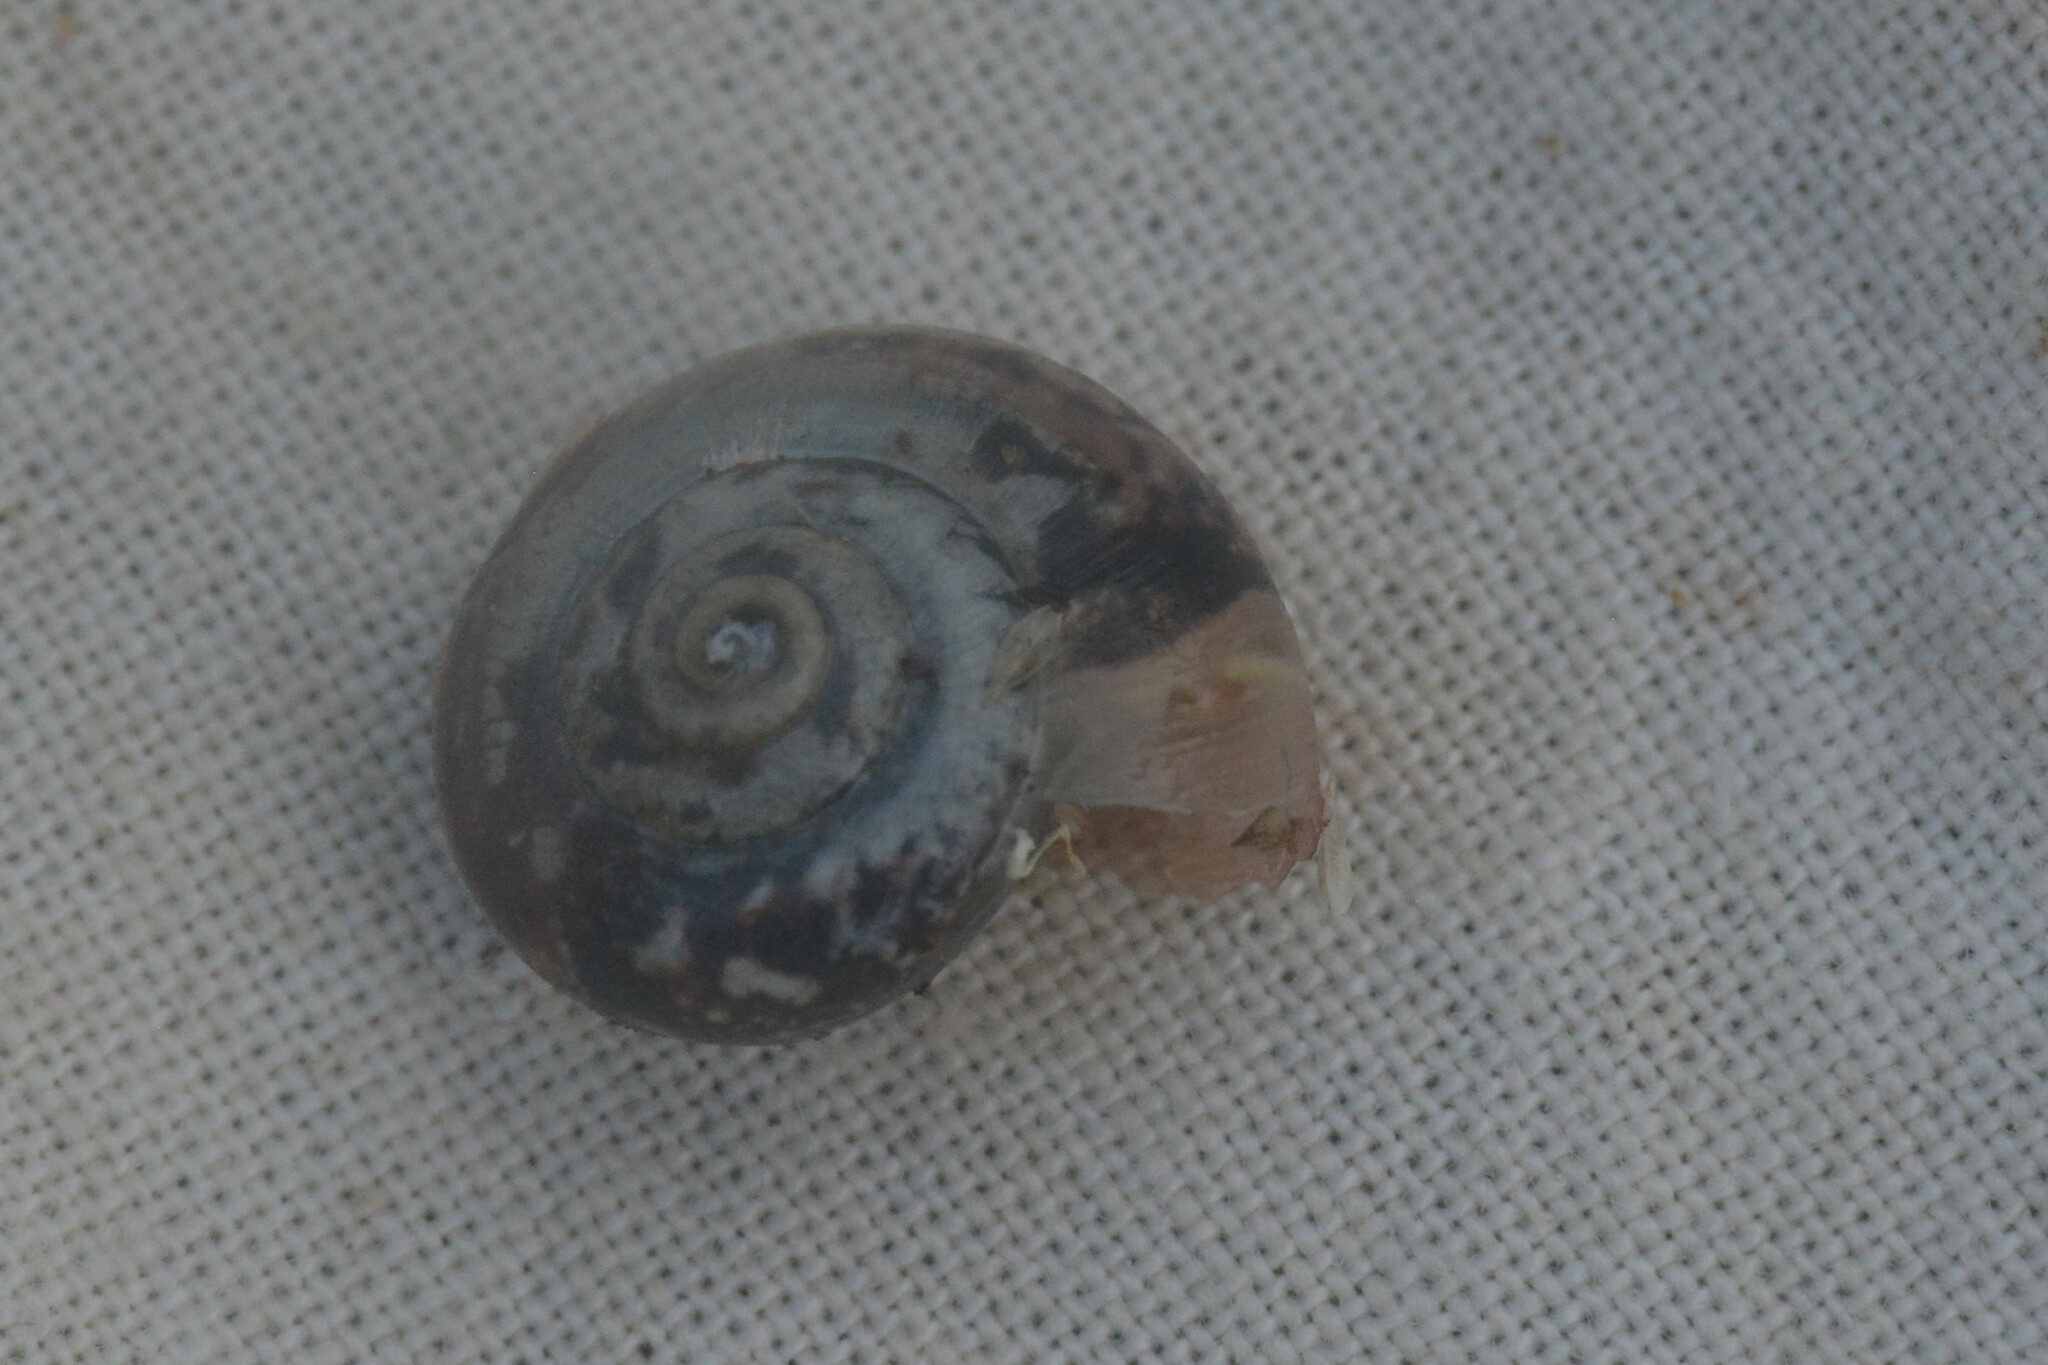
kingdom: Animalia
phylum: Mollusca
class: Gastropoda
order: Stylommatophora
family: Hygromiidae
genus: Monacha
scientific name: Monacha cantiana
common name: Kentish snail
